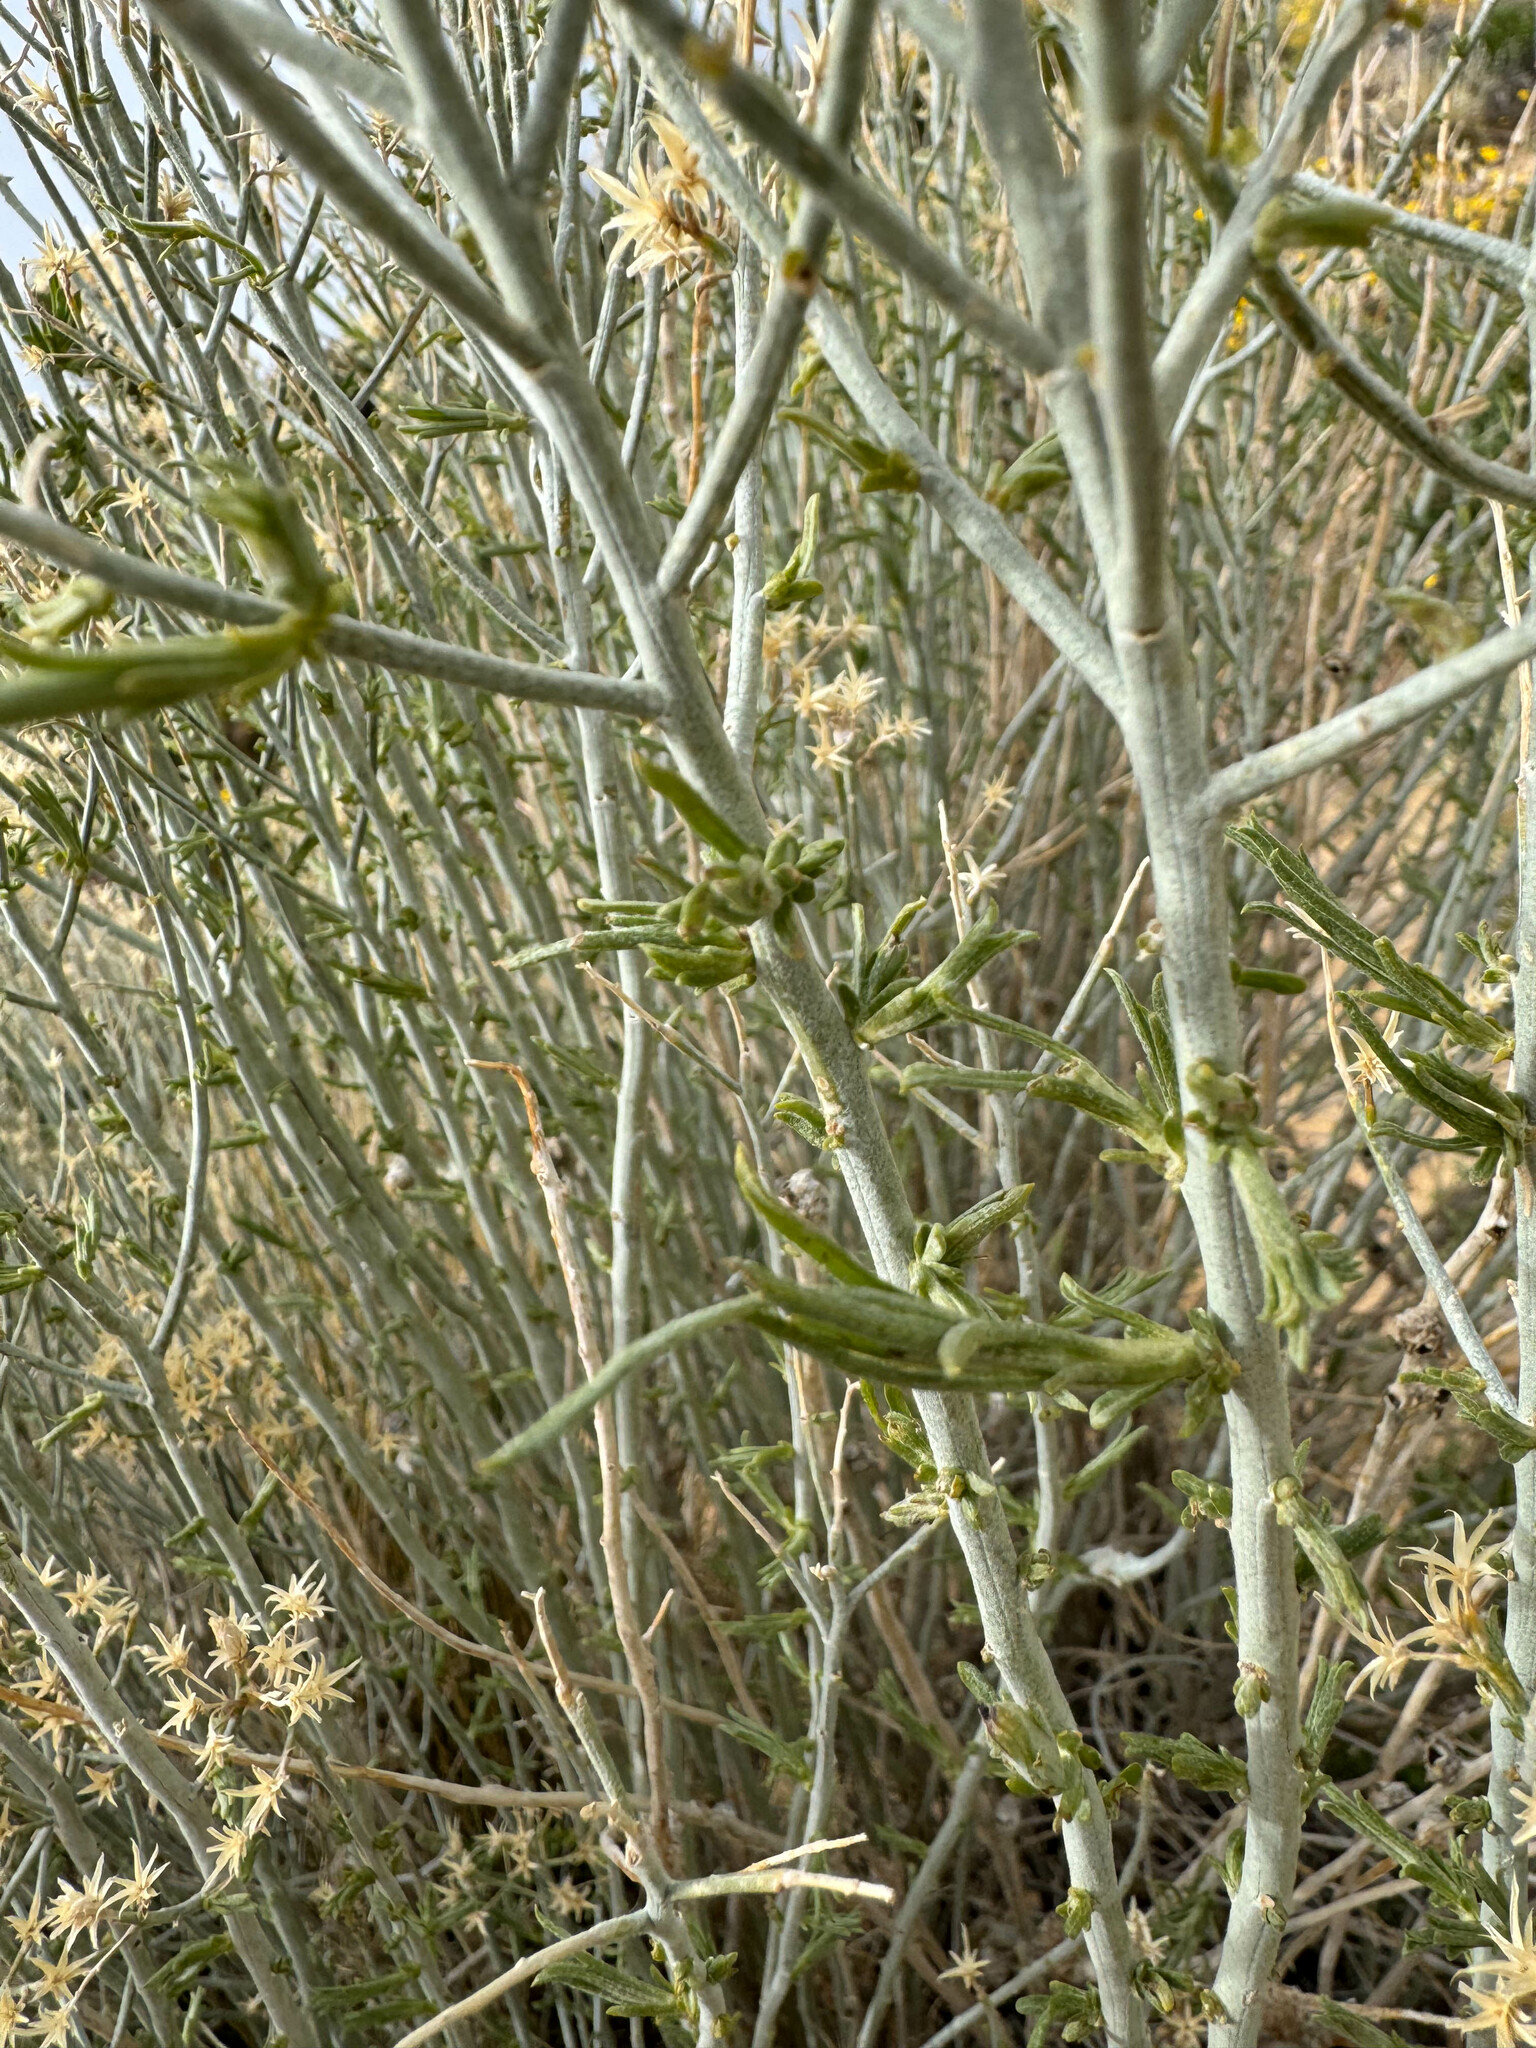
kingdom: Plantae
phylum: Tracheophyta
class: Magnoliopsida
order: Asterales
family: Asteraceae
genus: Ericameria
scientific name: Ericameria nauseosa
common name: Rubber rabbitbrush
